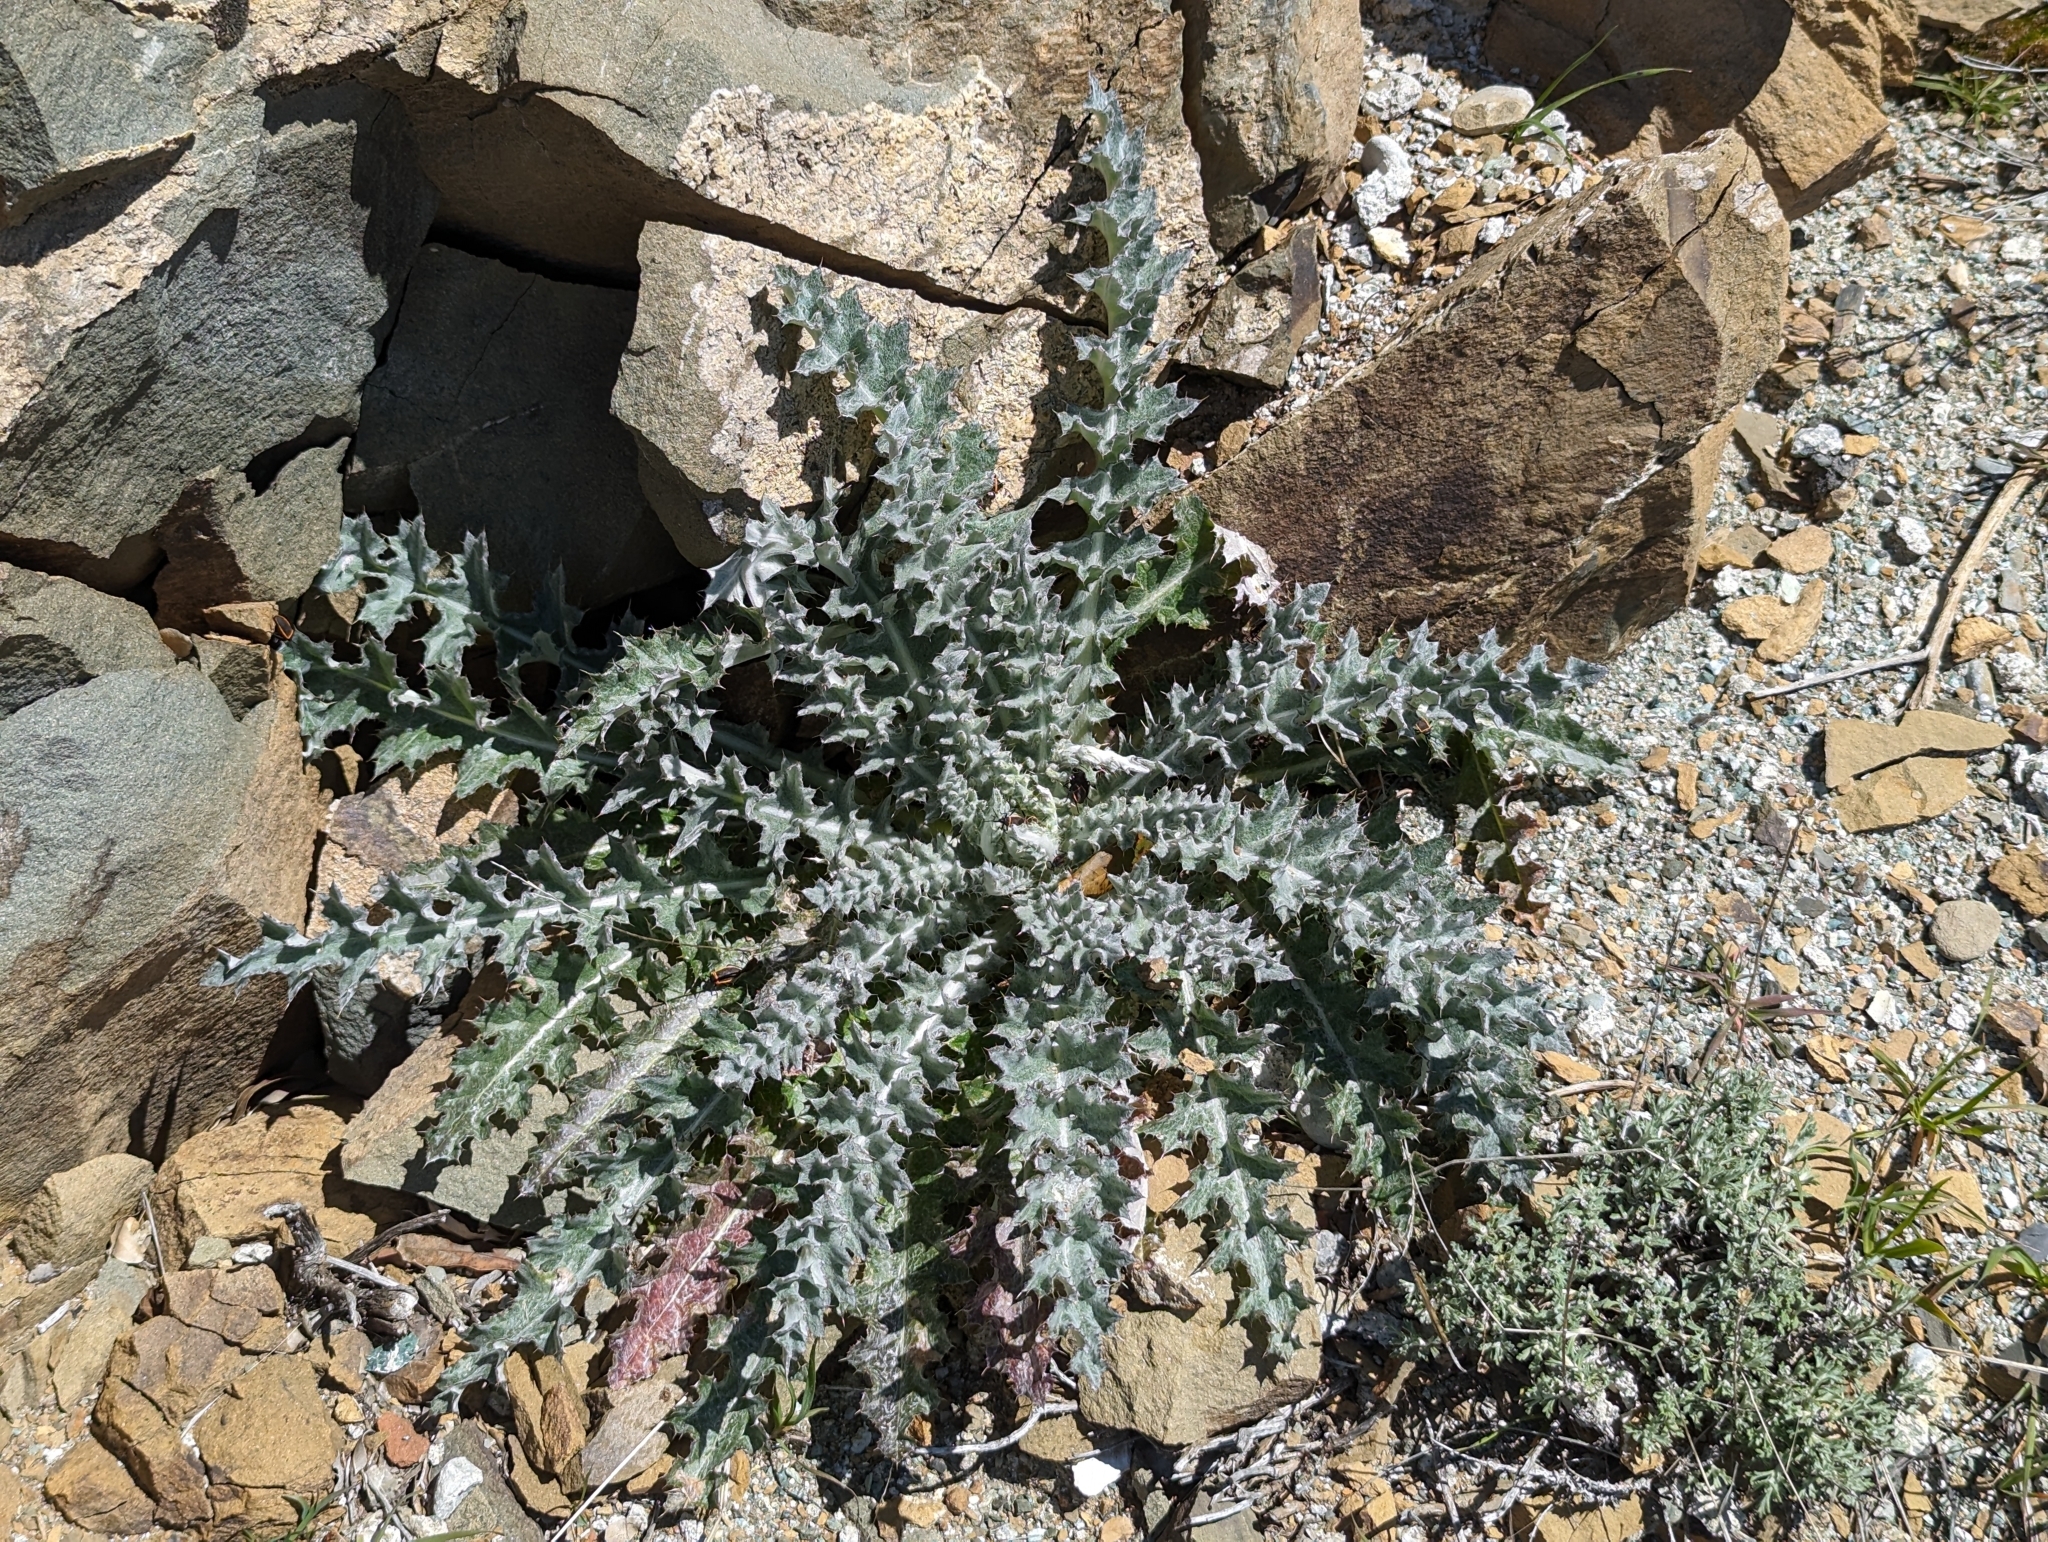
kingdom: Plantae
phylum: Tracheophyta
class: Magnoliopsida
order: Asterales
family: Asteraceae
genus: Cirsium
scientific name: Cirsium occidentale
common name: Western thistle
